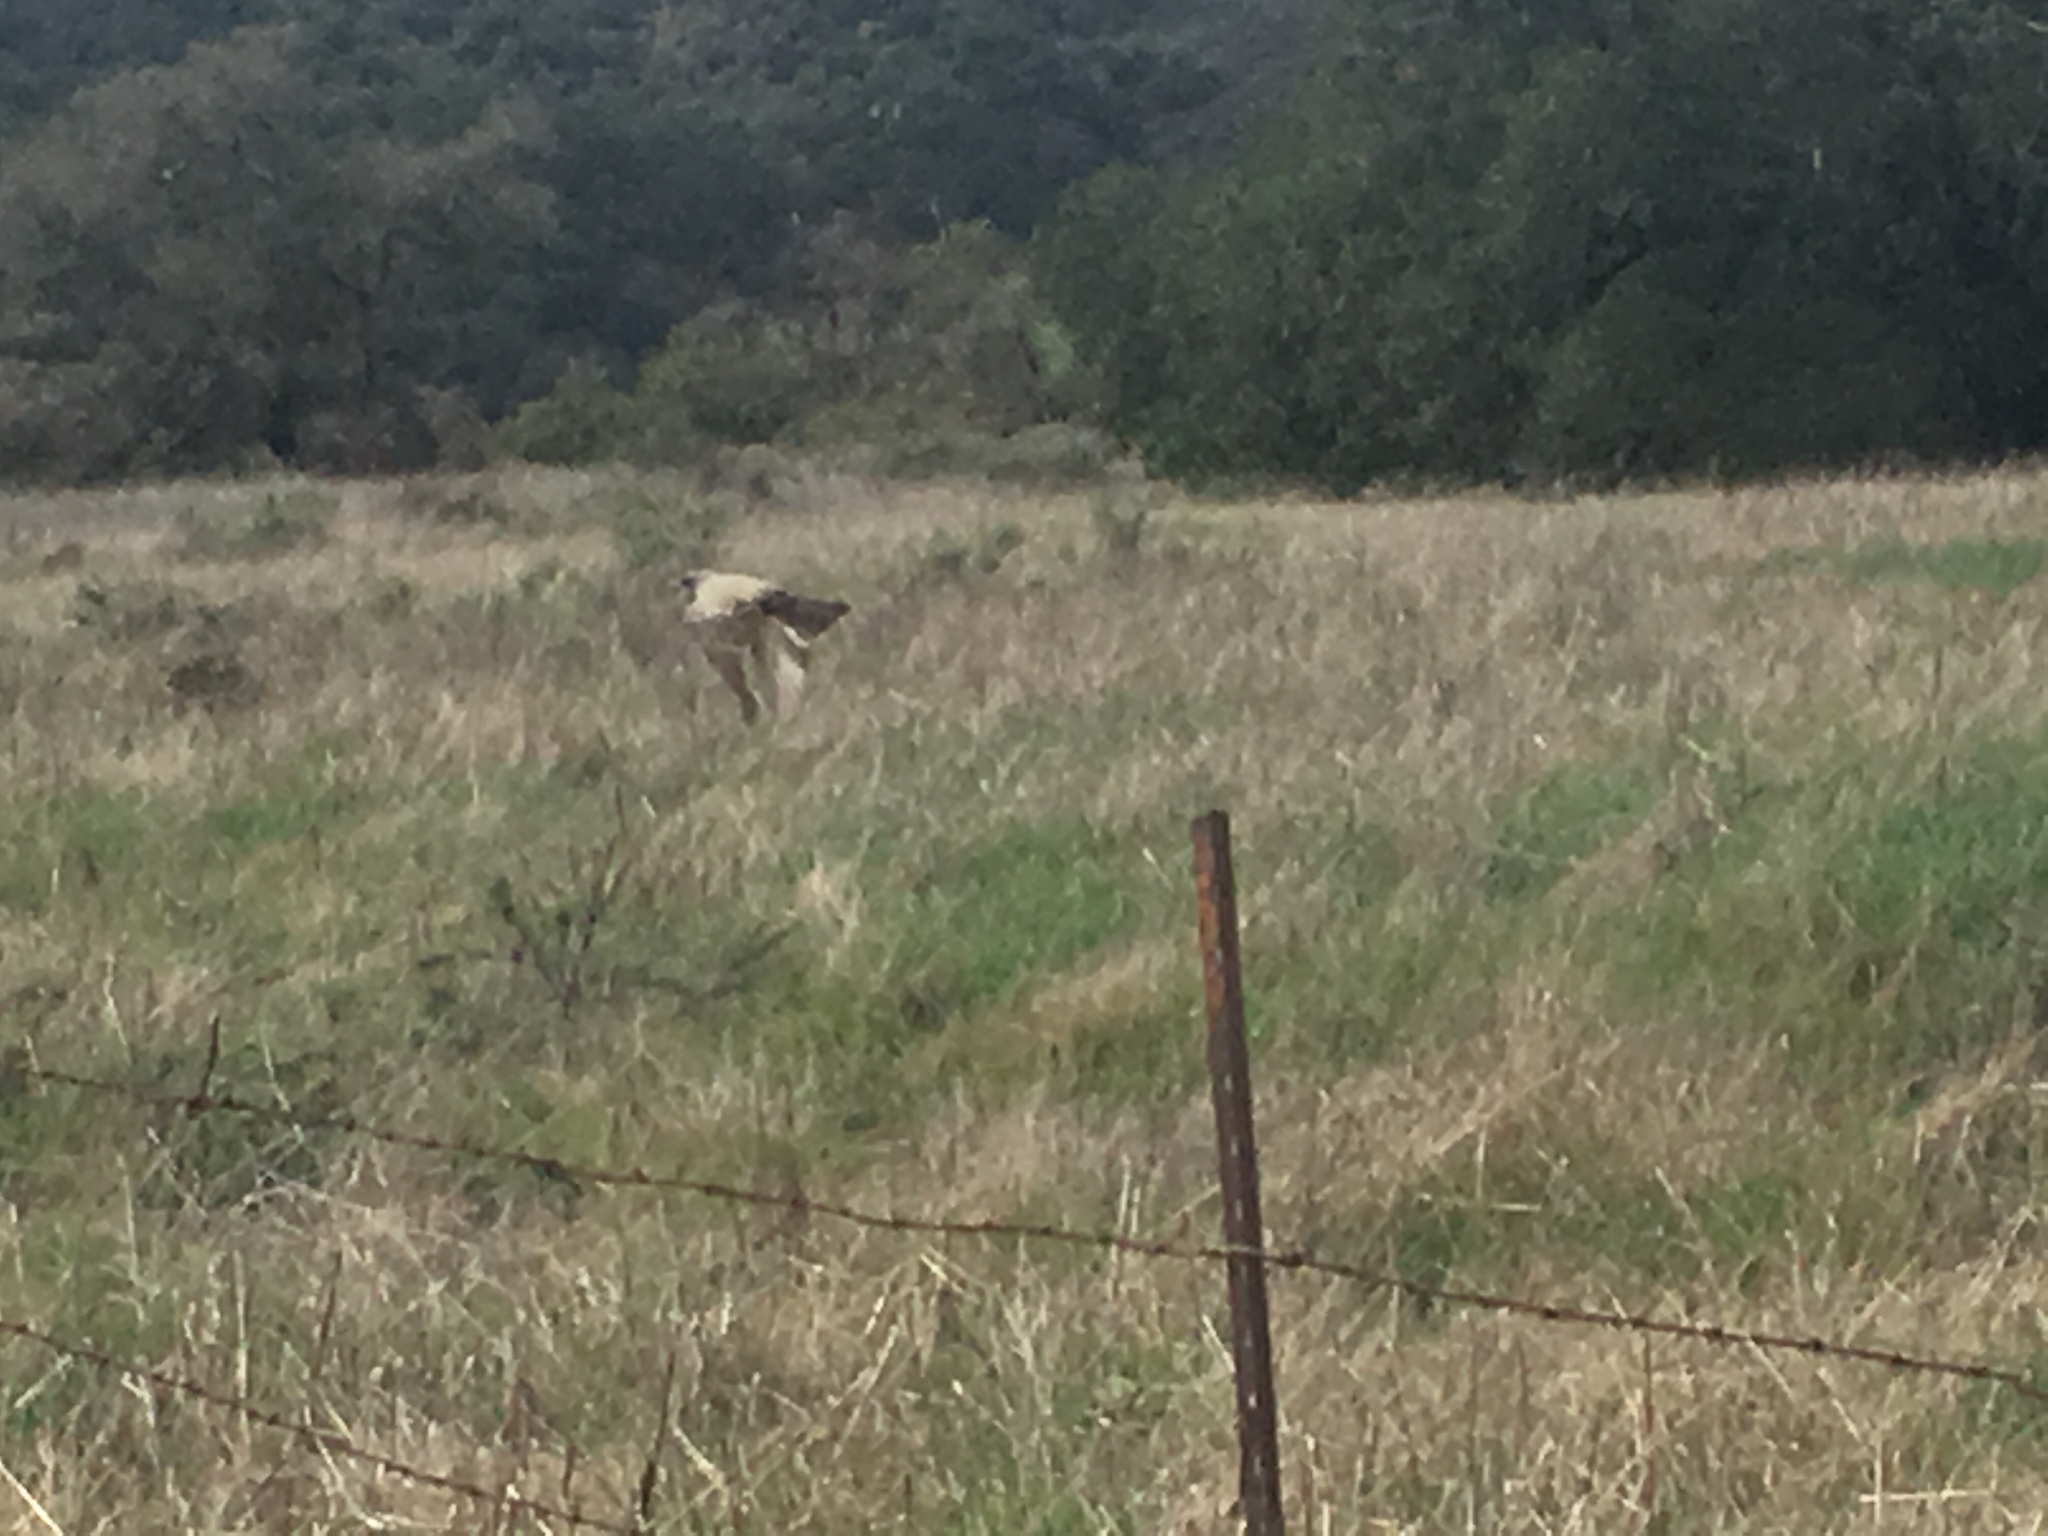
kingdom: Animalia
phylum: Chordata
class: Aves
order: Passeriformes
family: Tyrannidae
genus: Tyrannus
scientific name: Tyrannus vociferans
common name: Cassin's kingbird
